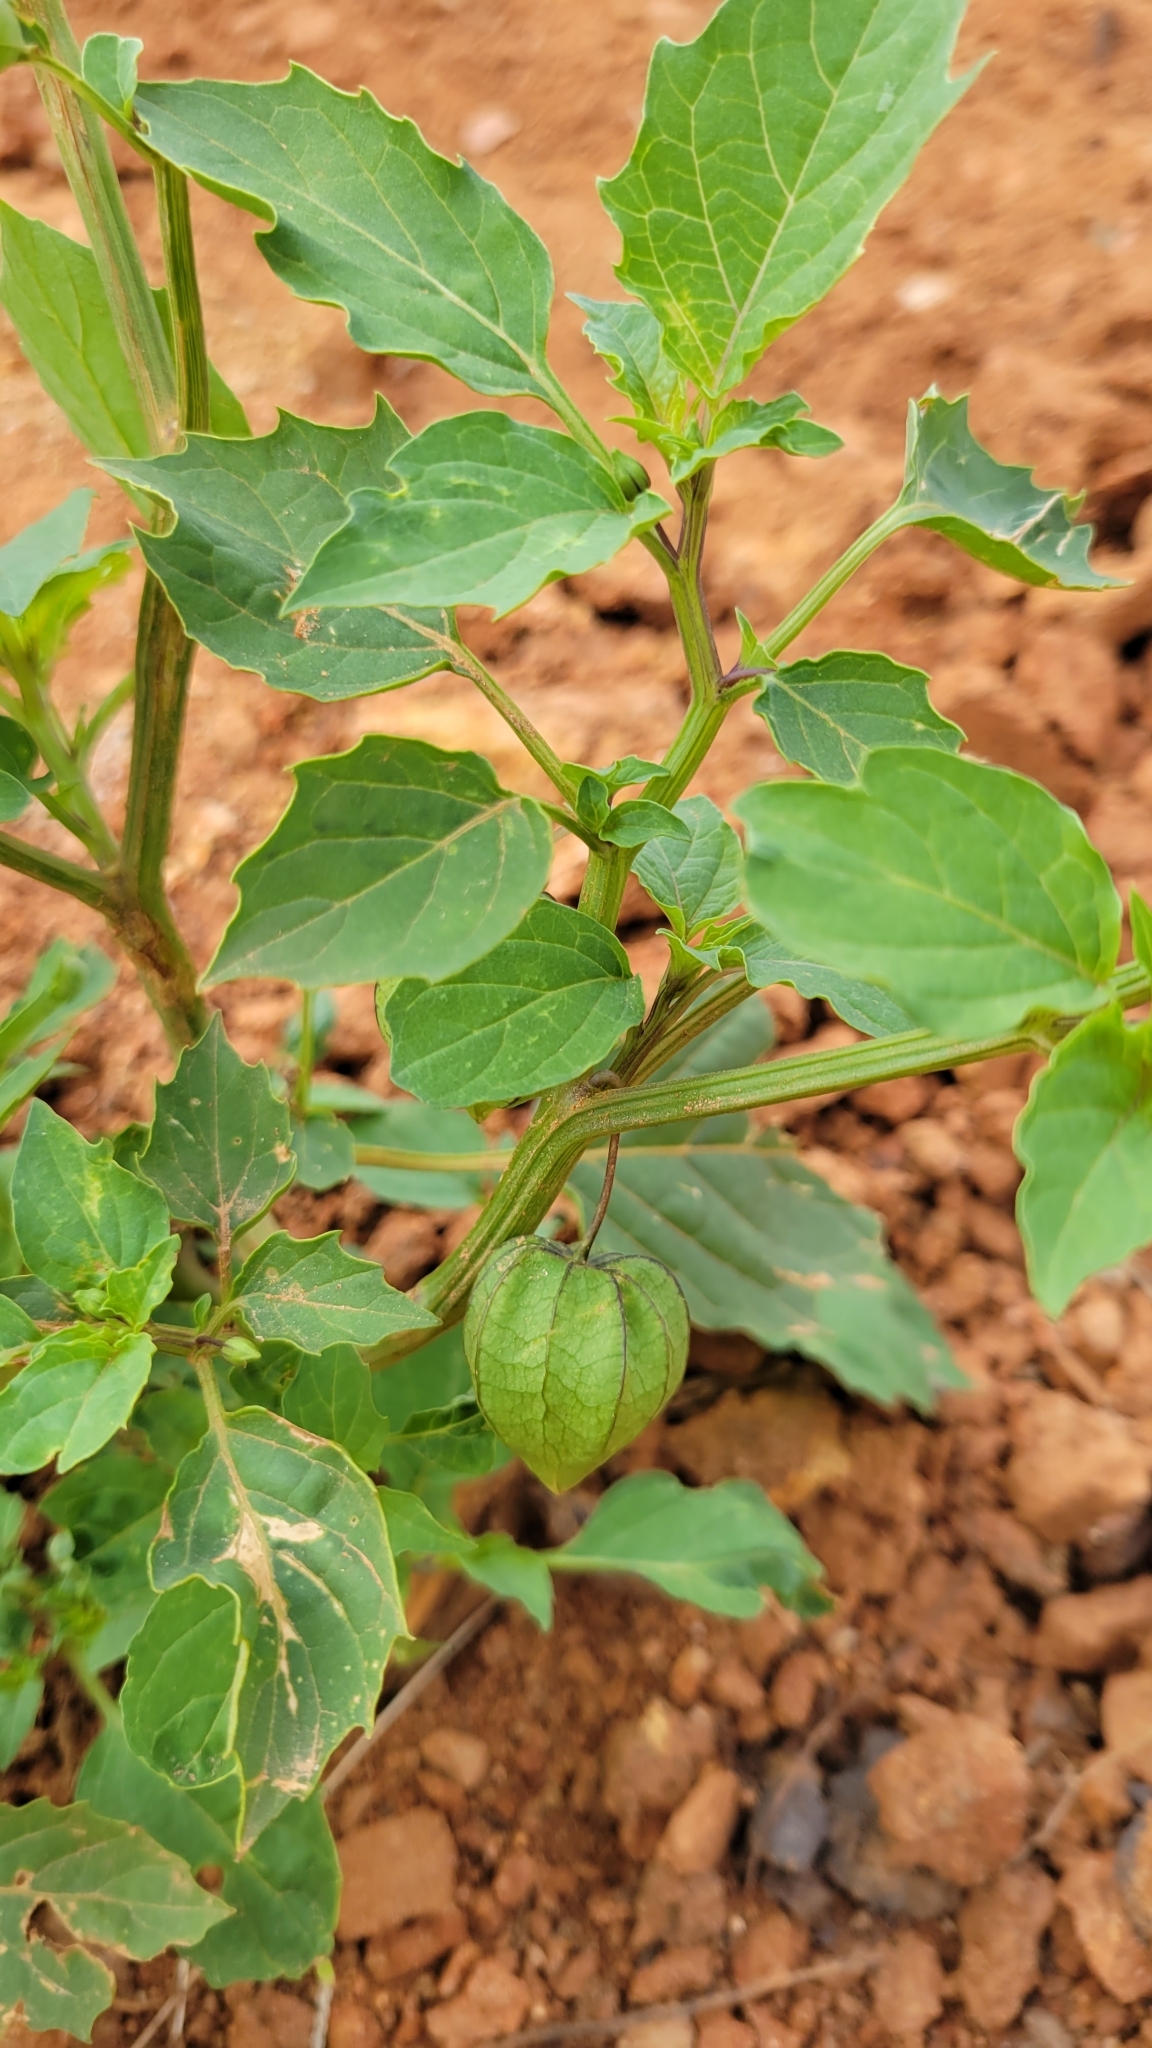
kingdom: Plantae
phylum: Tracheophyta
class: Magnoliopsida
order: Solanales
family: Solanaceae
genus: Physalis
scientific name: Physalis angulata
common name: Angular winter-cherry
